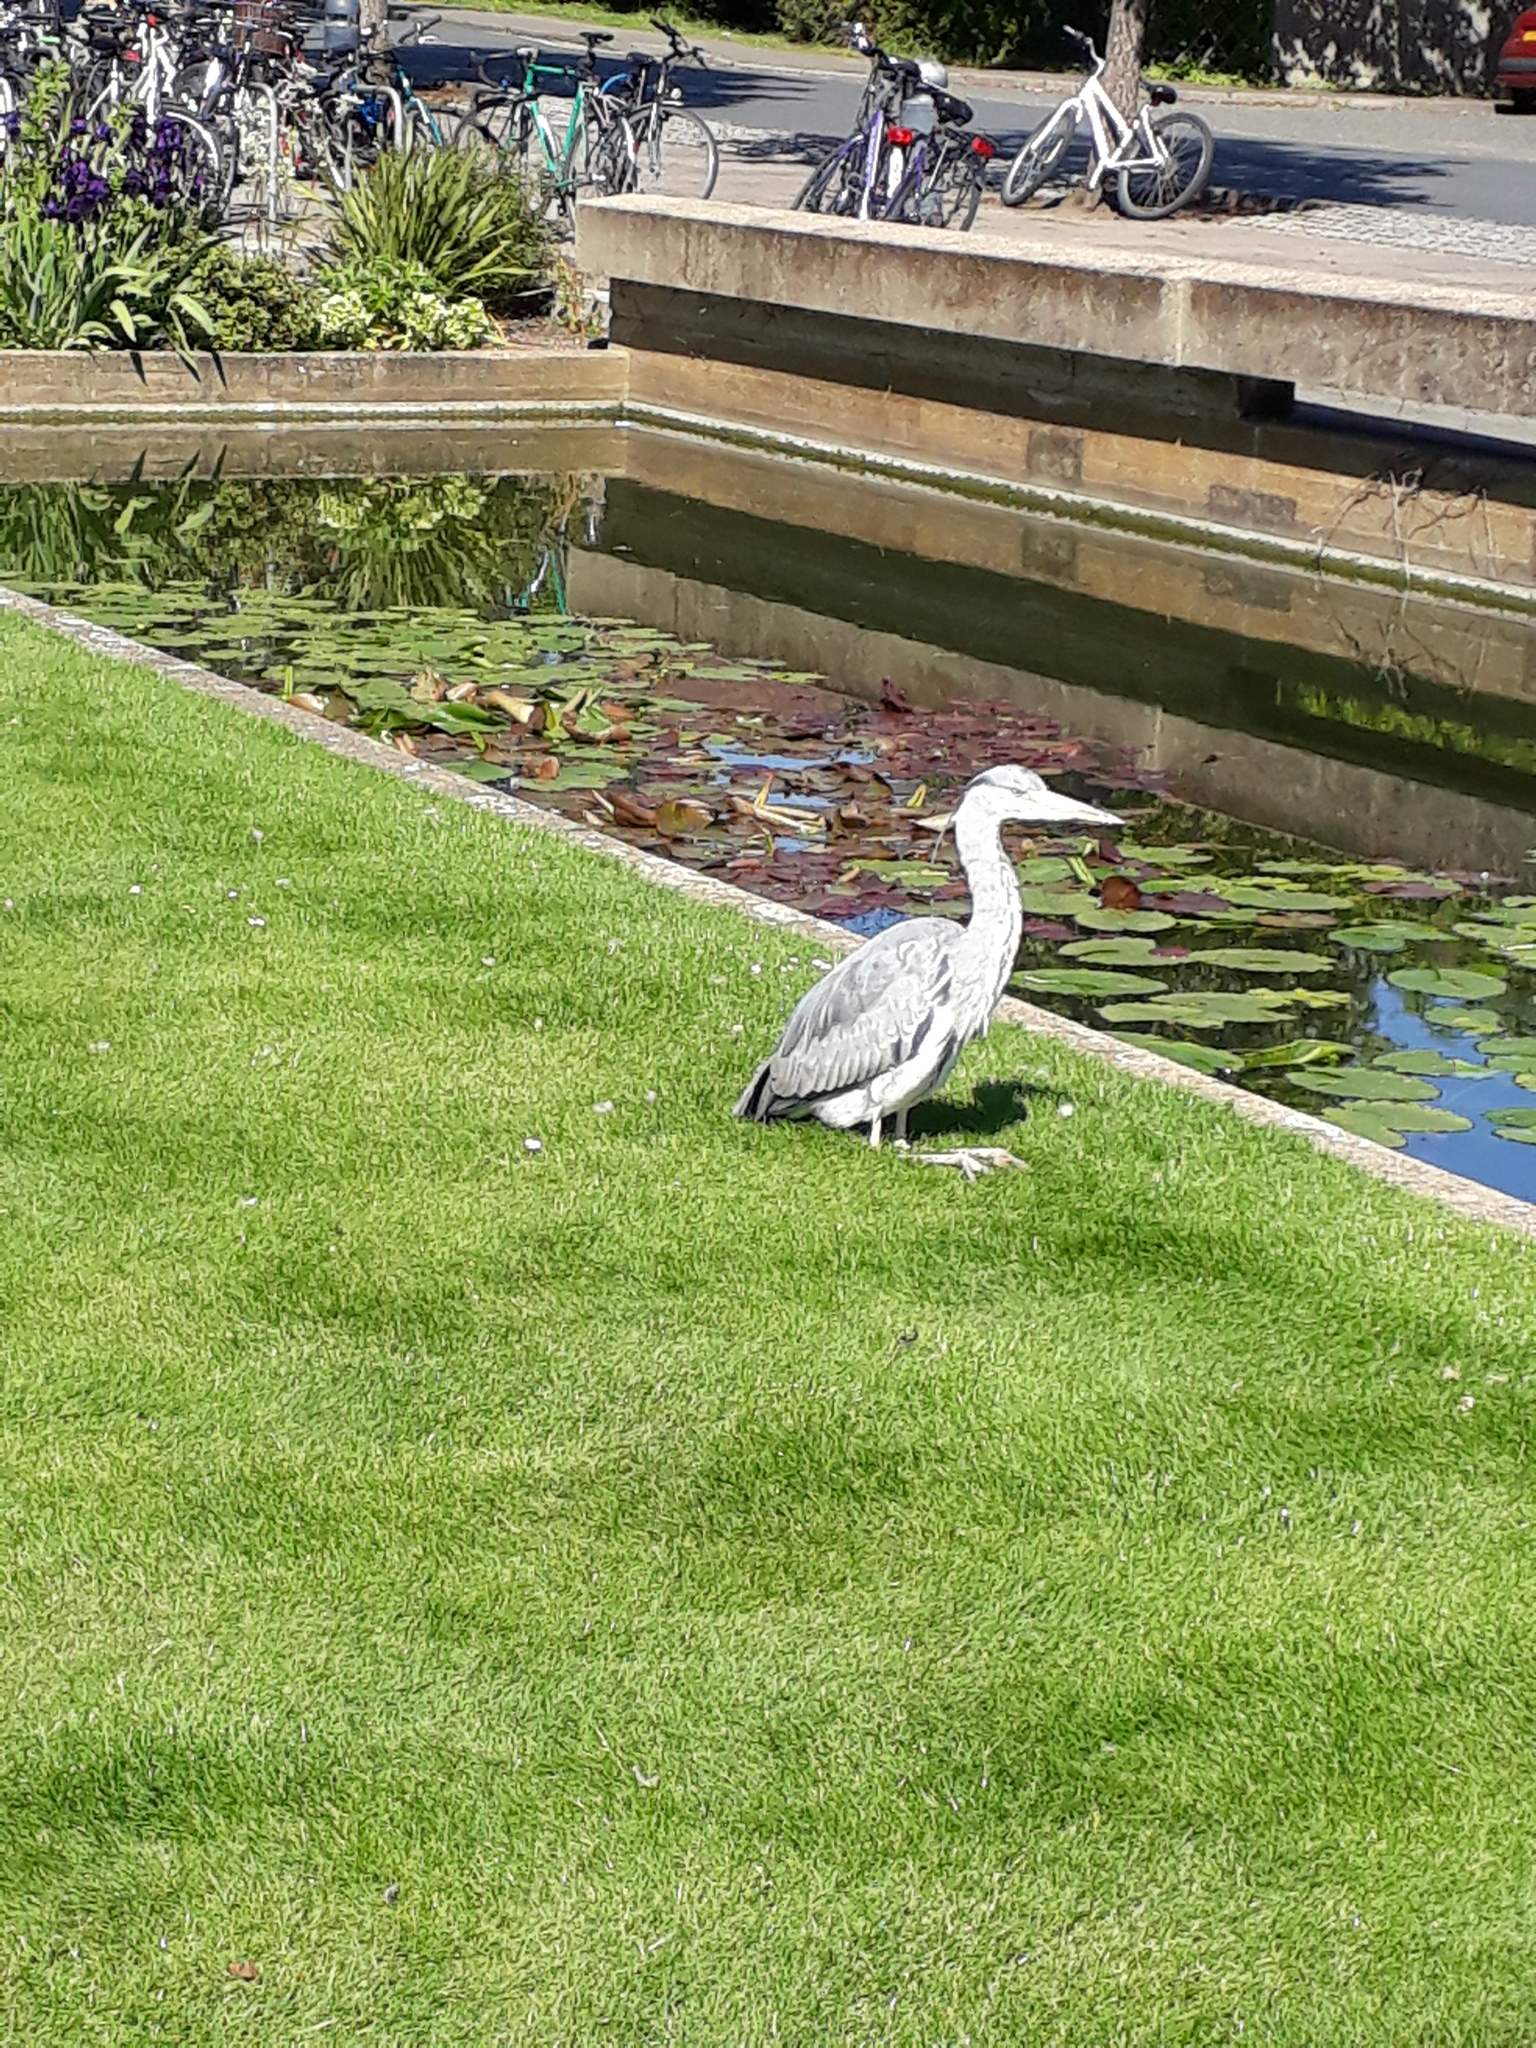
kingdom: Animalia
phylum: Chordata
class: Aves
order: Pelecaniformes
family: Ardeidae
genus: Ardea
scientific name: Ardea cinerea
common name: Grey heron
